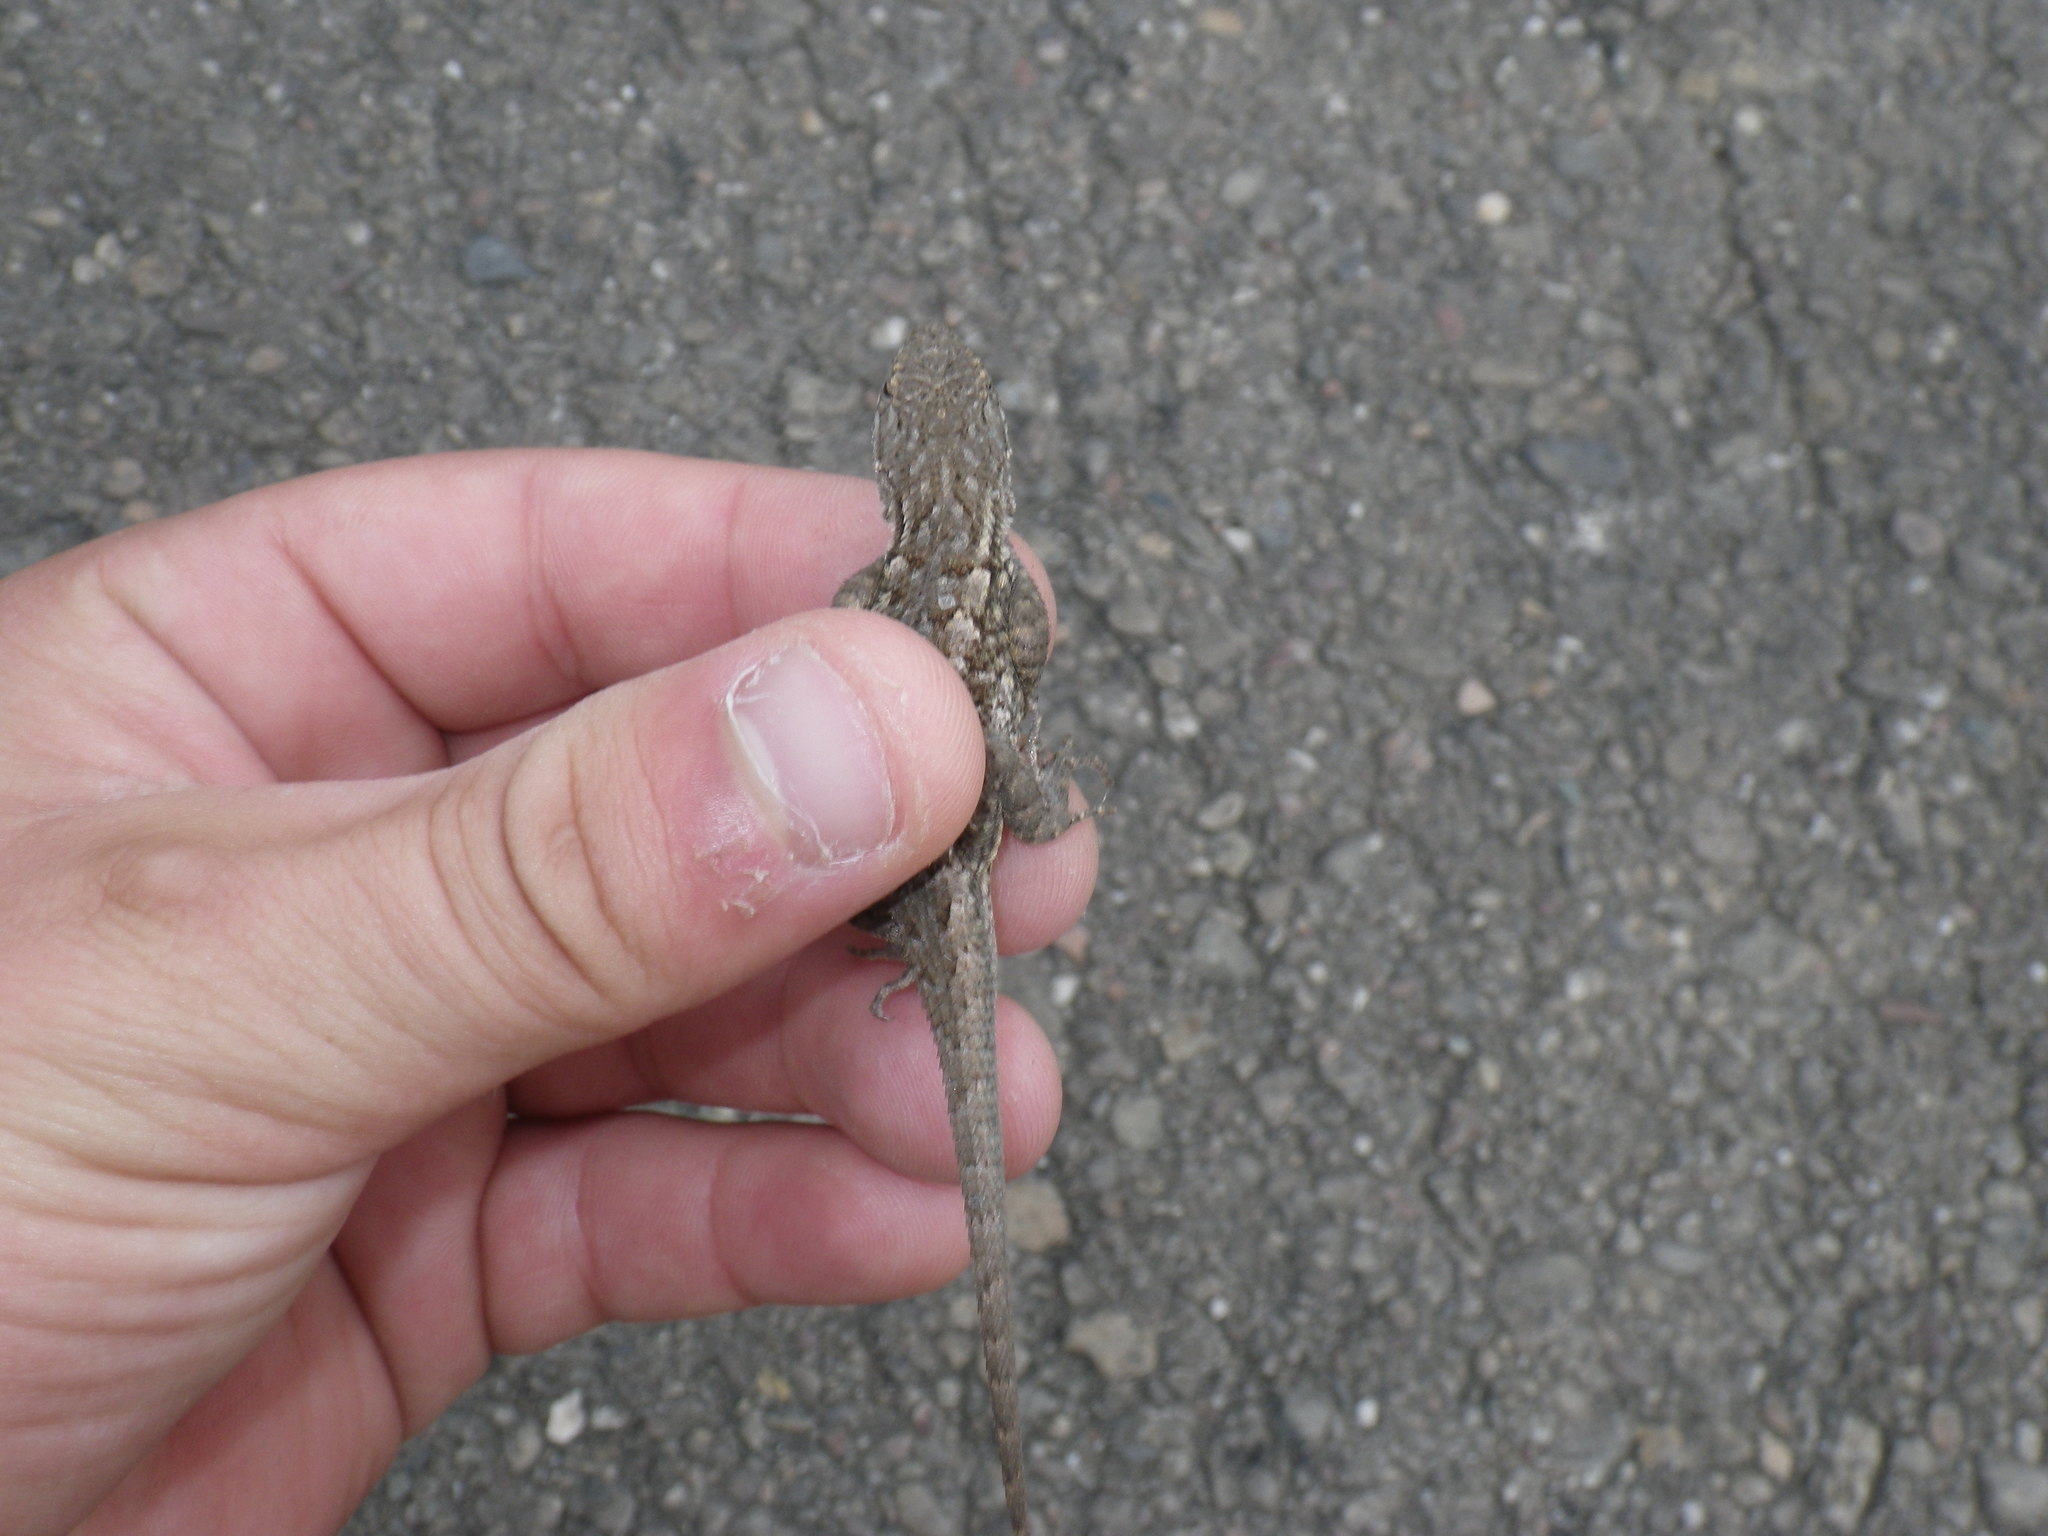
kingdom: Animalia
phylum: Chordata
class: Squamata
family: Phrynosomatidae
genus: Sceloporus
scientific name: Sceloporus occidentalis
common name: Western fence lizard
